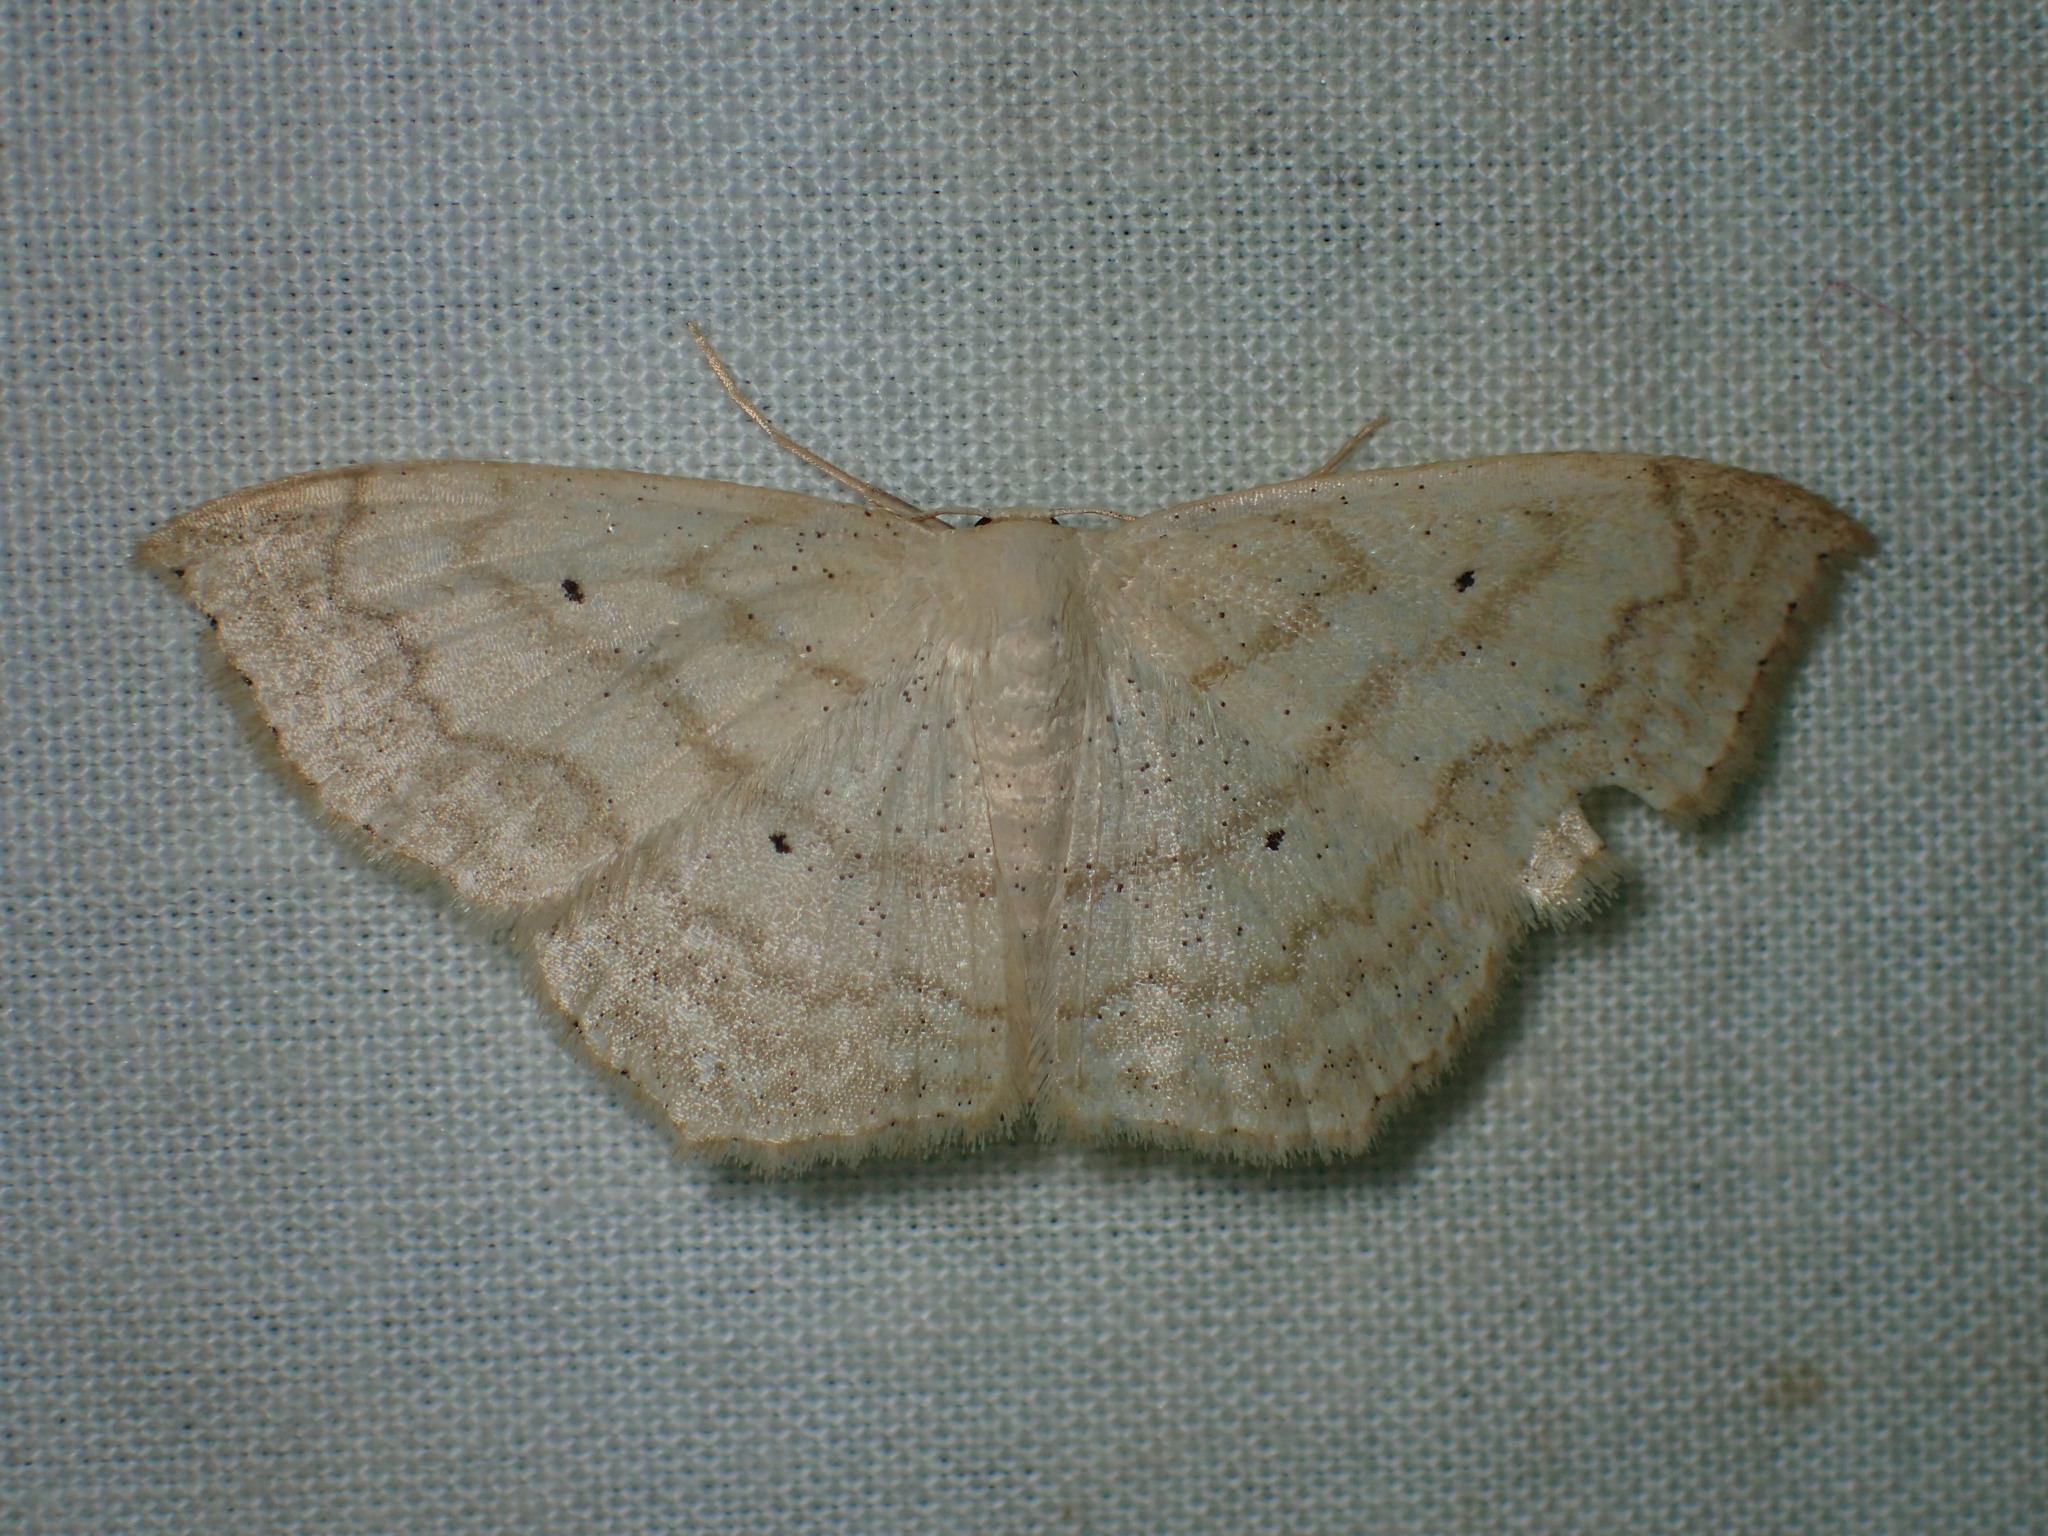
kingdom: Animalia
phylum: Arthropoda
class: Insecta
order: Lepidoptera
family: Geometridae
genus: Scopula
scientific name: Scopula limboundata
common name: Large lace border
